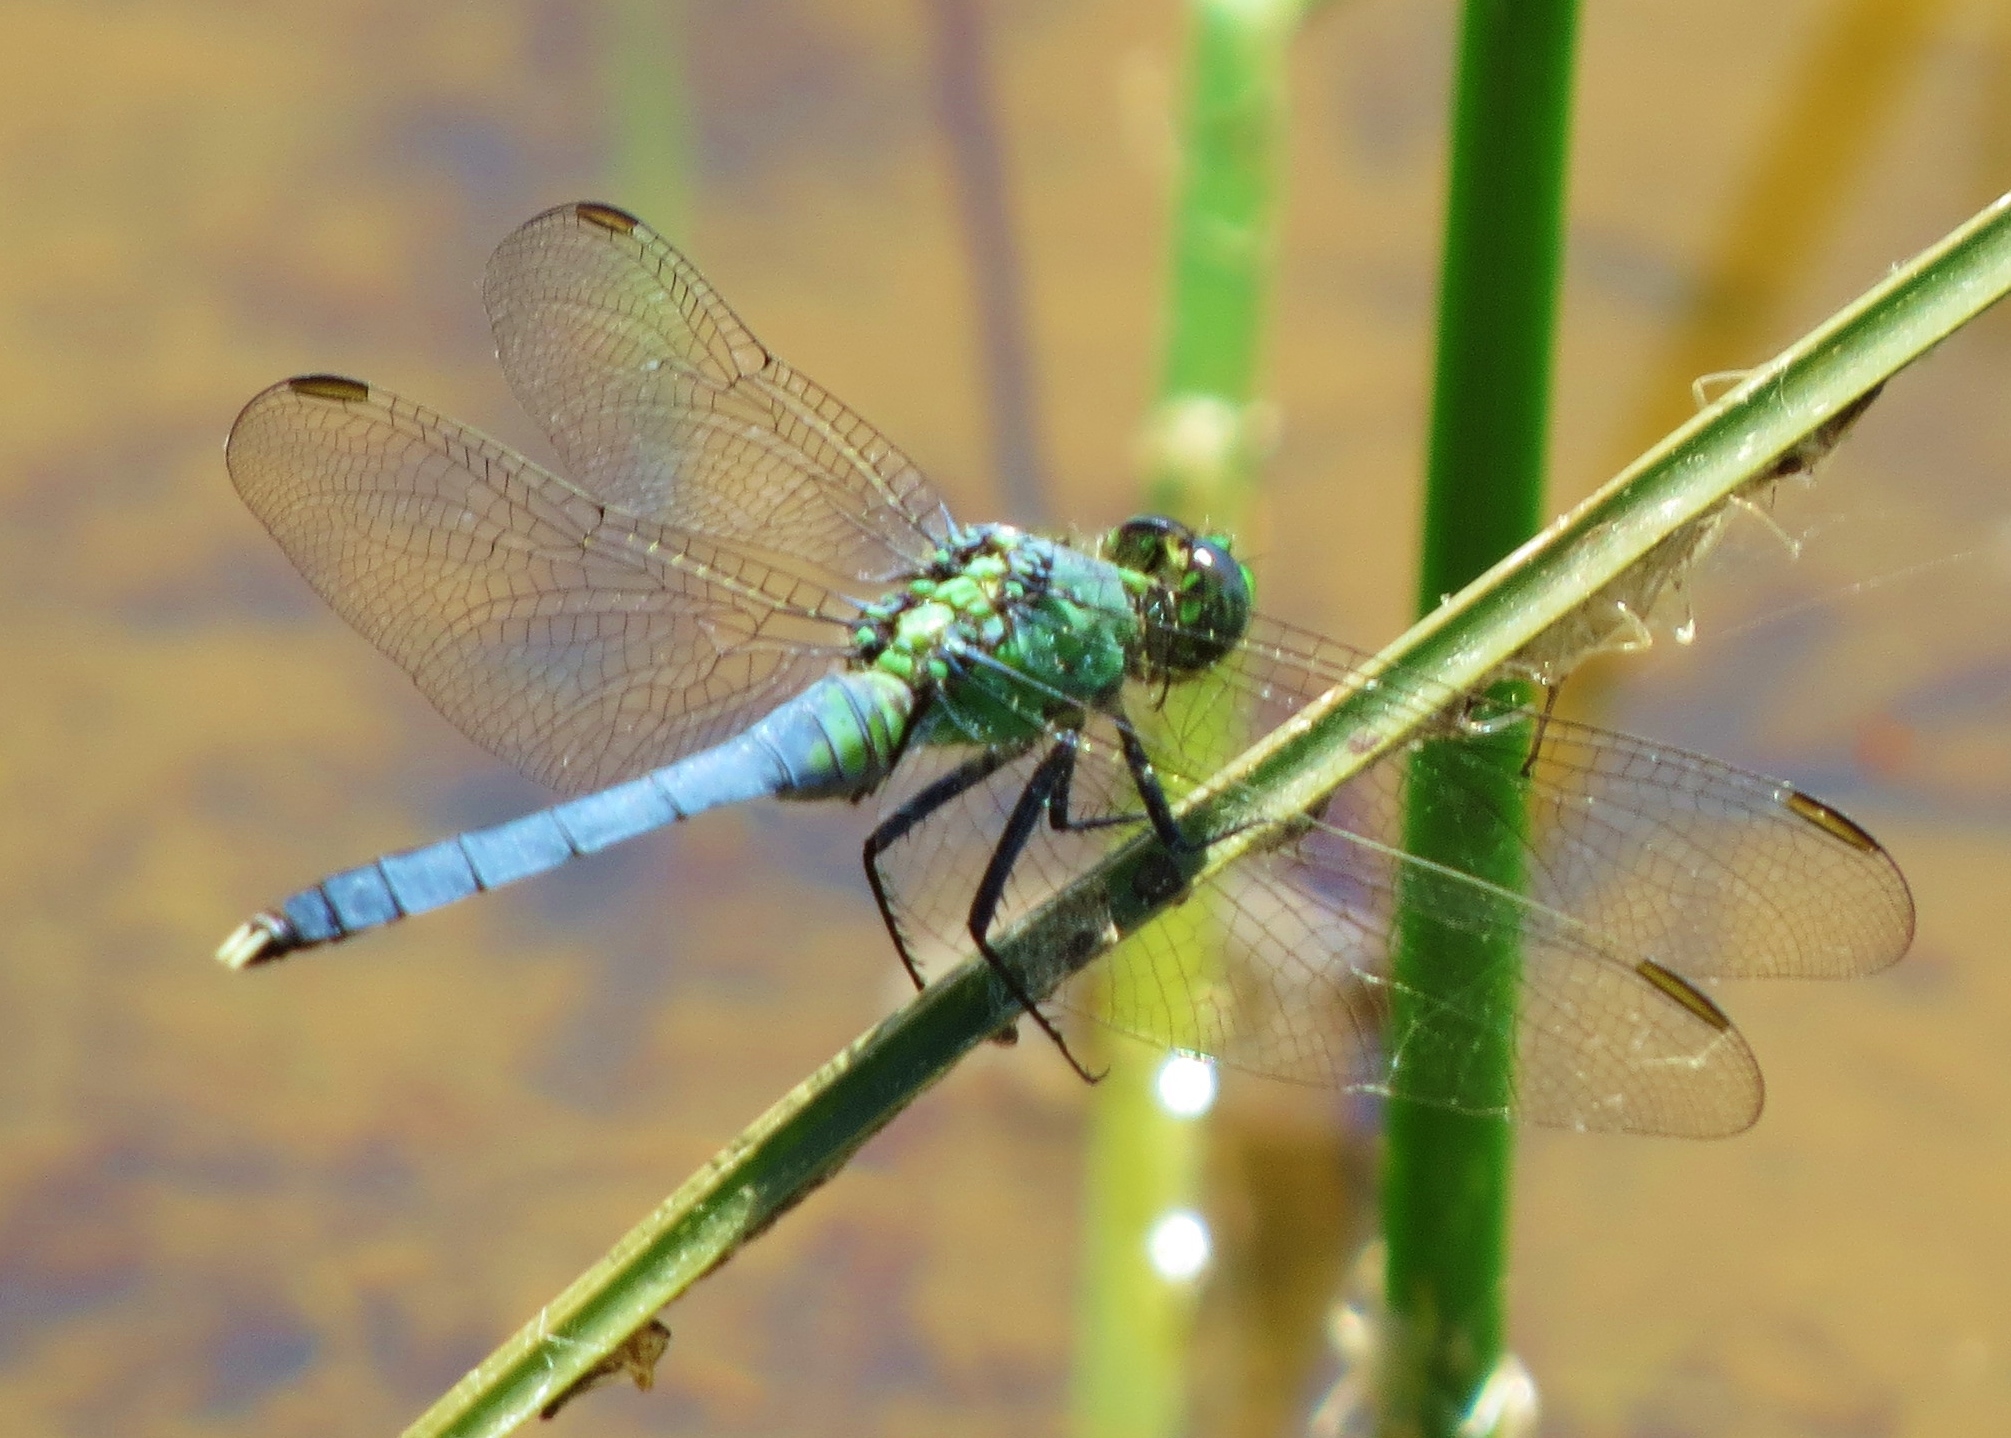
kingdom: Animalia
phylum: Arthropoda
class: Insecta
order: Odonata
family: Libellulidae
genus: Erythemis
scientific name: Erythemis simplicicollis
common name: Eastern pondhawk
